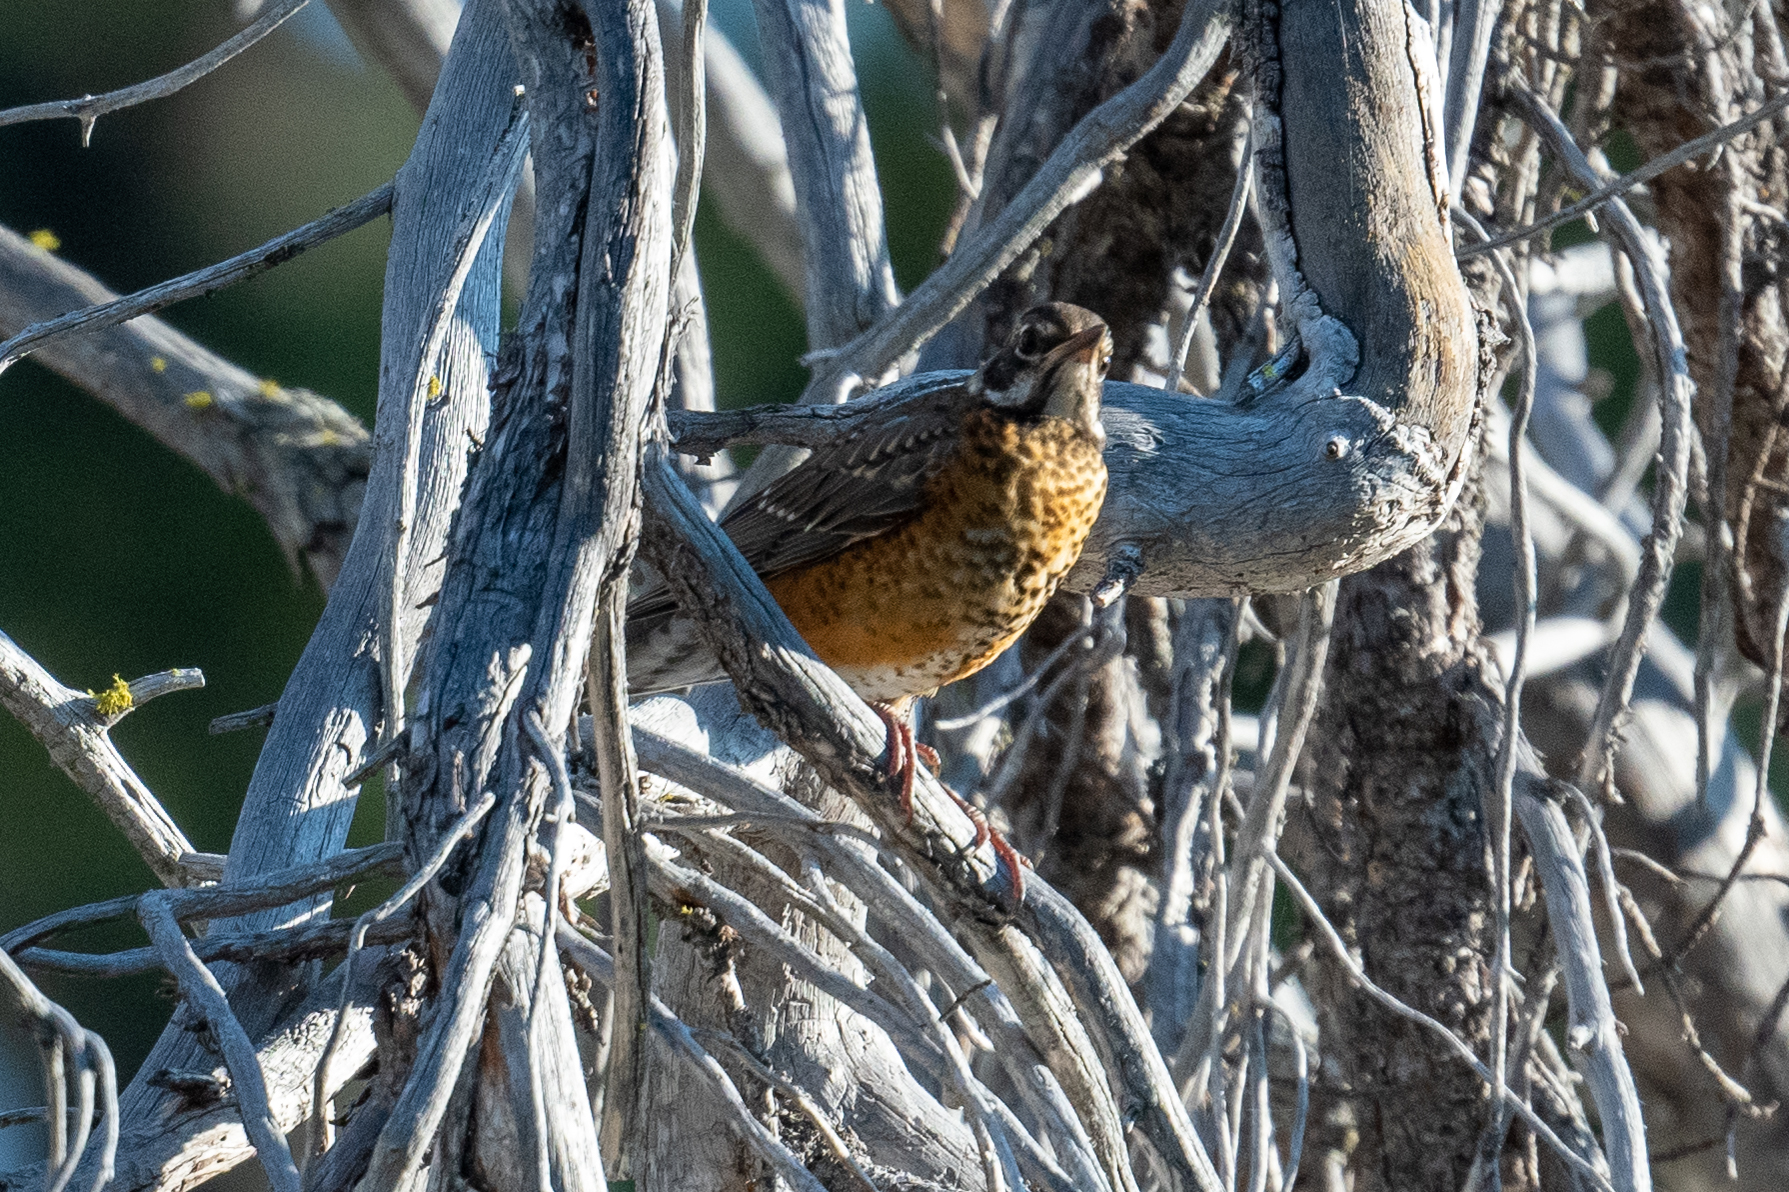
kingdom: Animalia
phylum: Chordata
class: Aves
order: Passeriformes
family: Turdidae
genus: Turdus
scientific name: Turdus migratorius
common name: American robin
